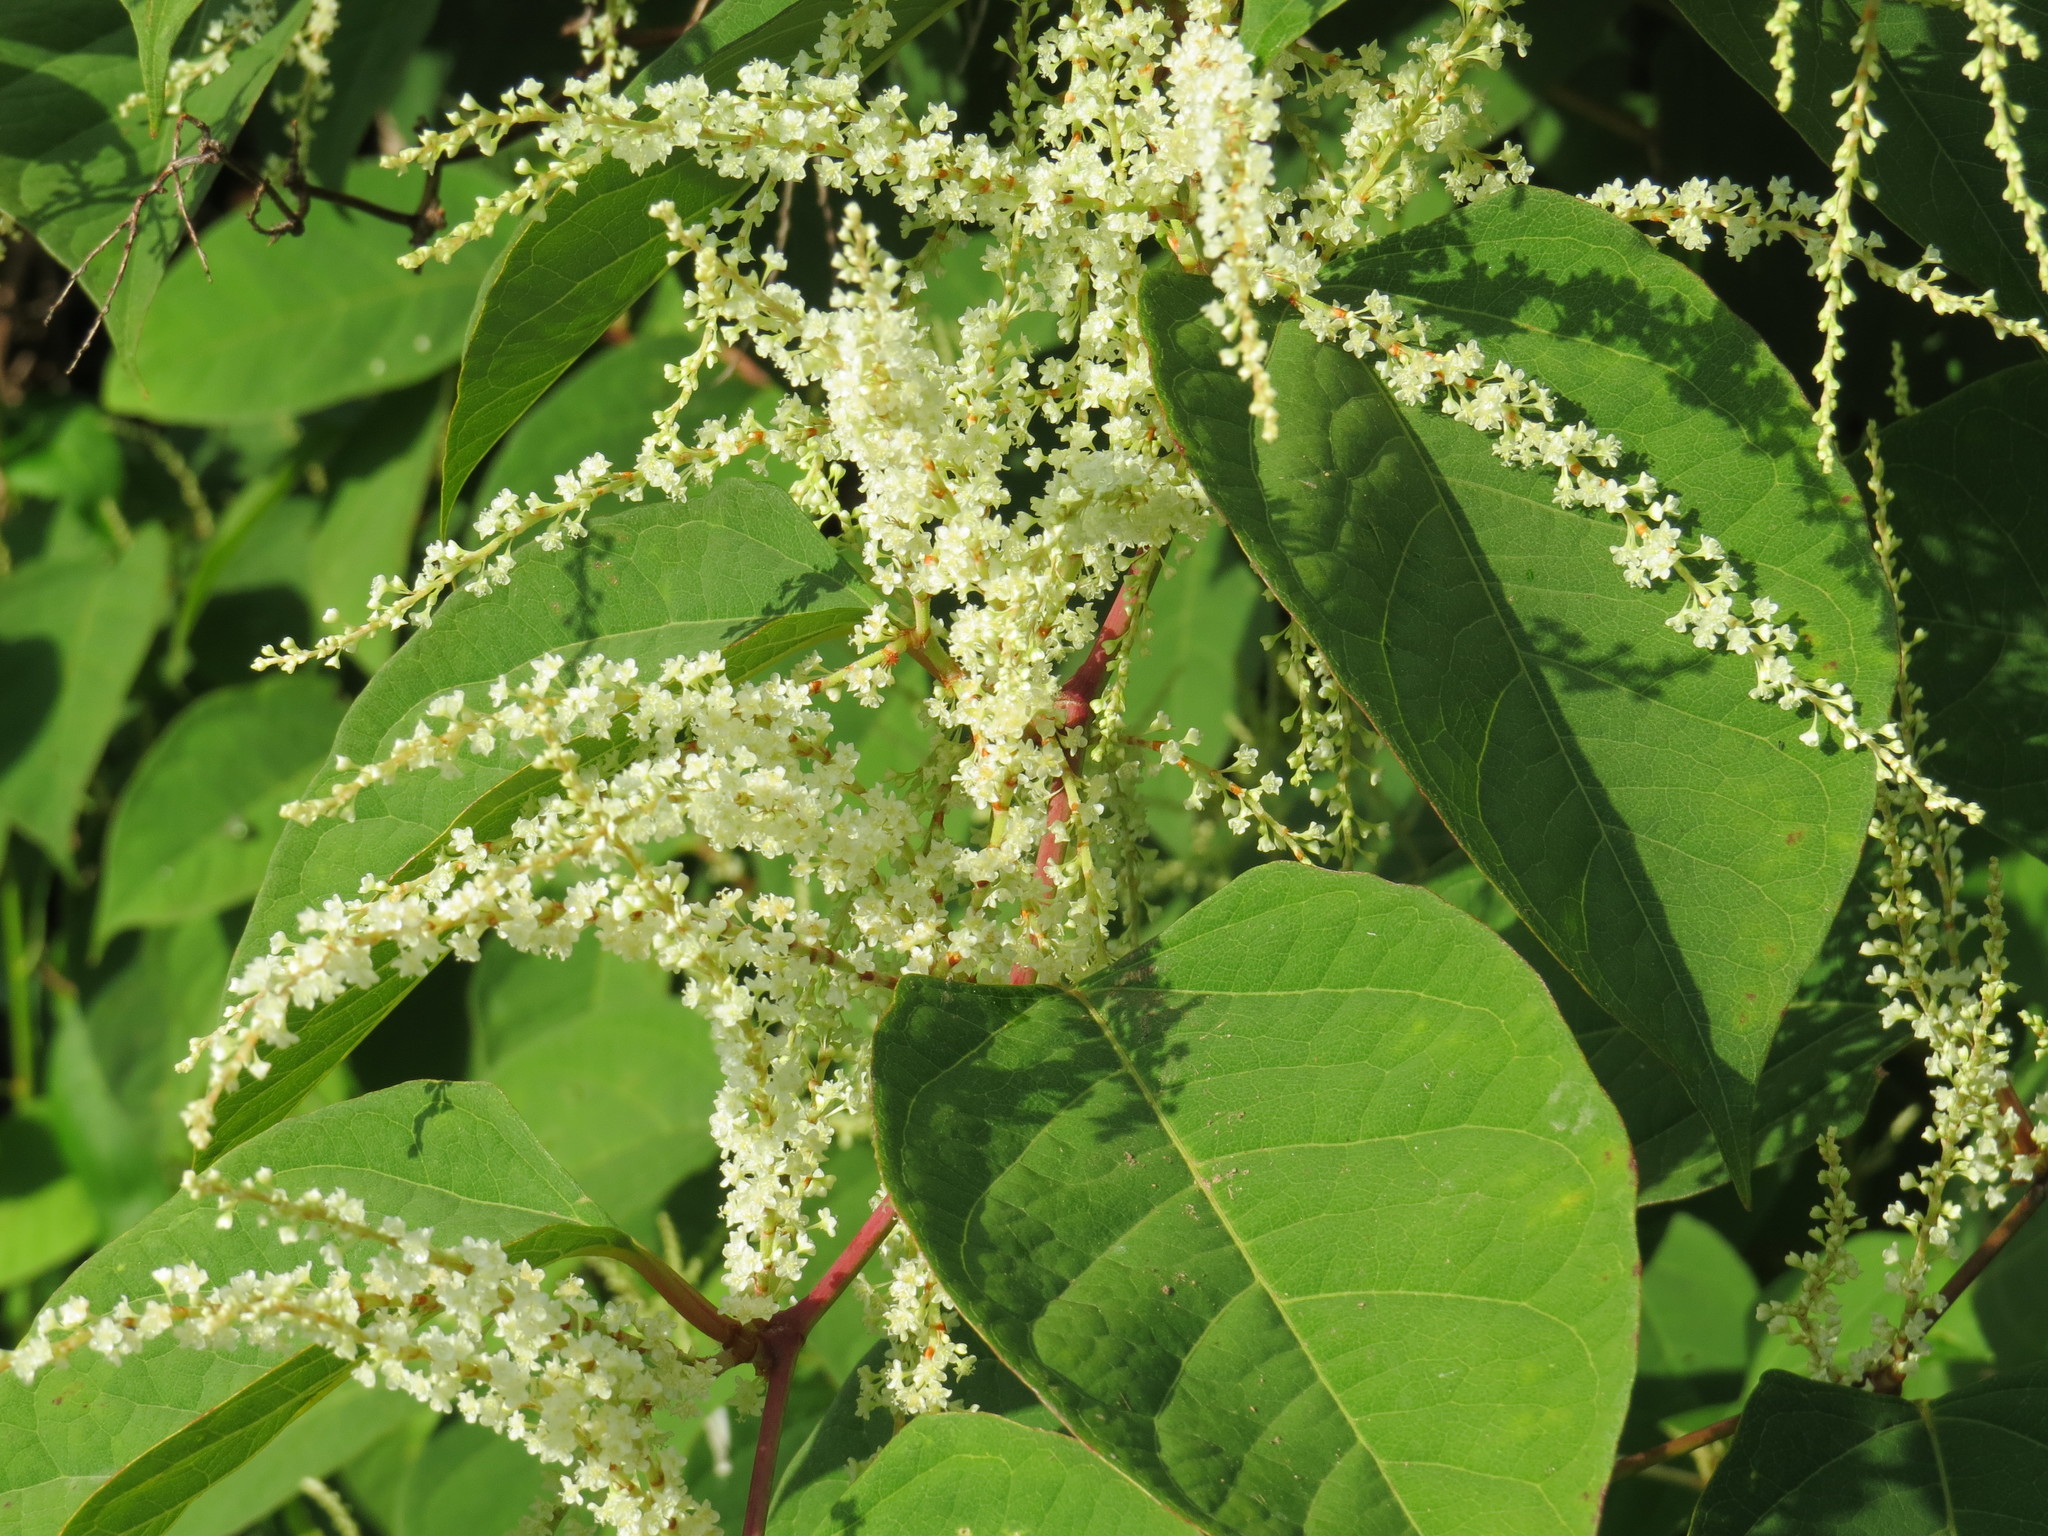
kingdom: Plantae
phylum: Tracheophyta
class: Magnoliopsida
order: Caryophyllales
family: Polygonaceae
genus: Reynoutria
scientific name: Reynoutria japonica
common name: Japanese knotweed
